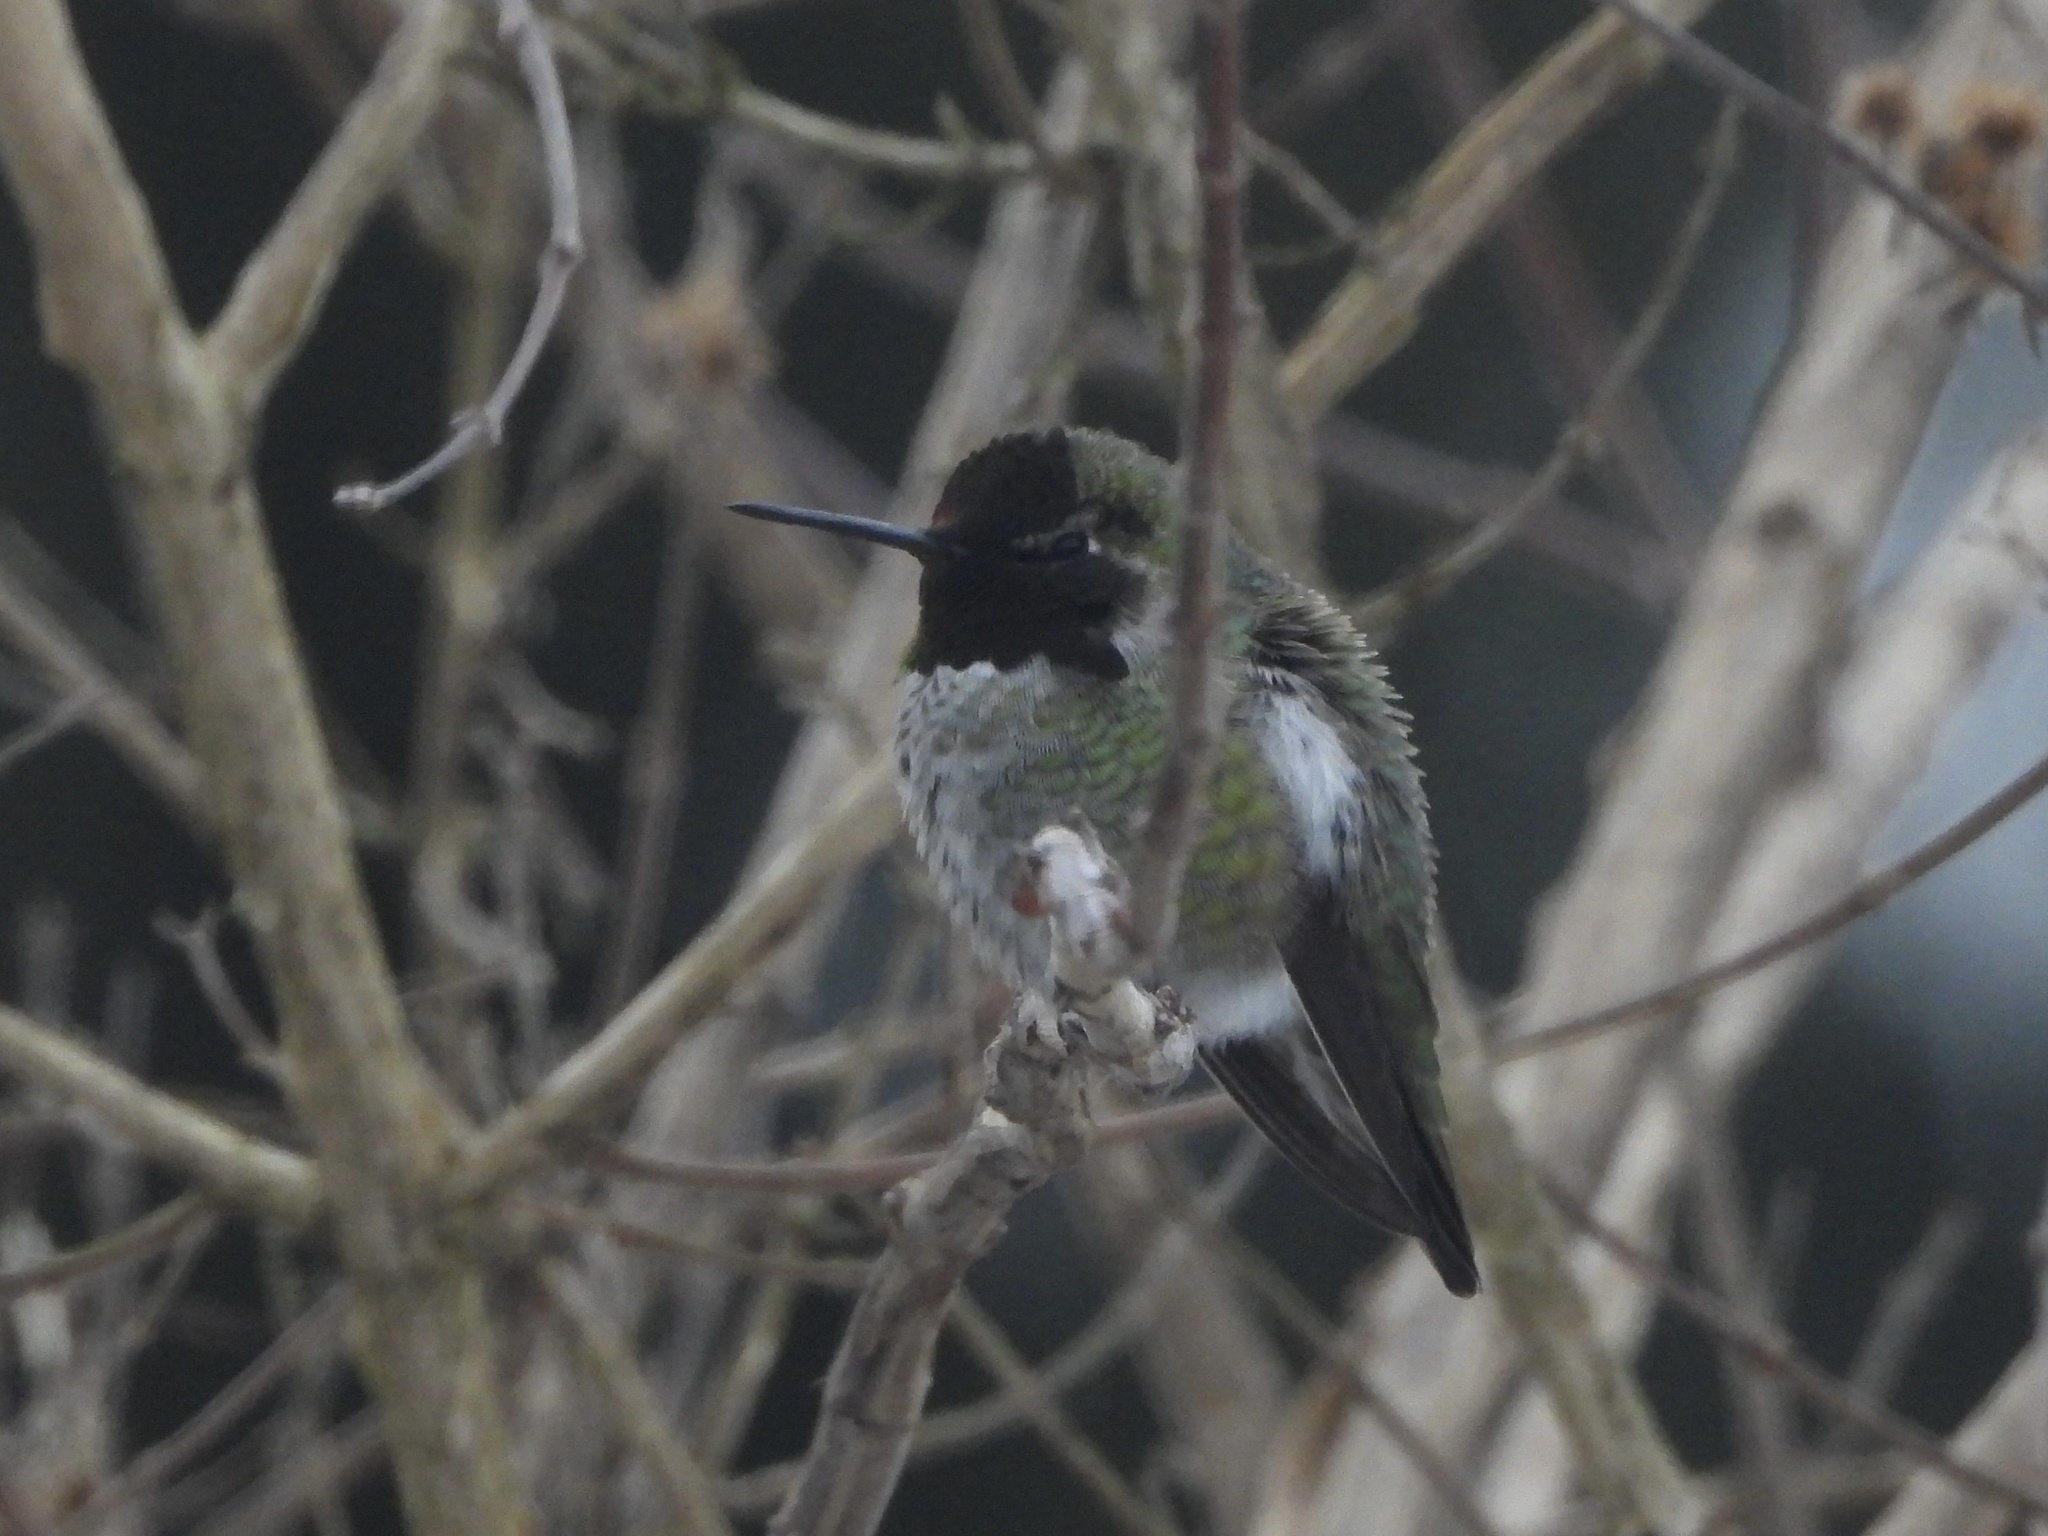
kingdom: Animalia
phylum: Chordata
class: Aves
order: Apodiformes
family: Trochilidae
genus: Calypte
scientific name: Calypte anna
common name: Anna's hummingbird
